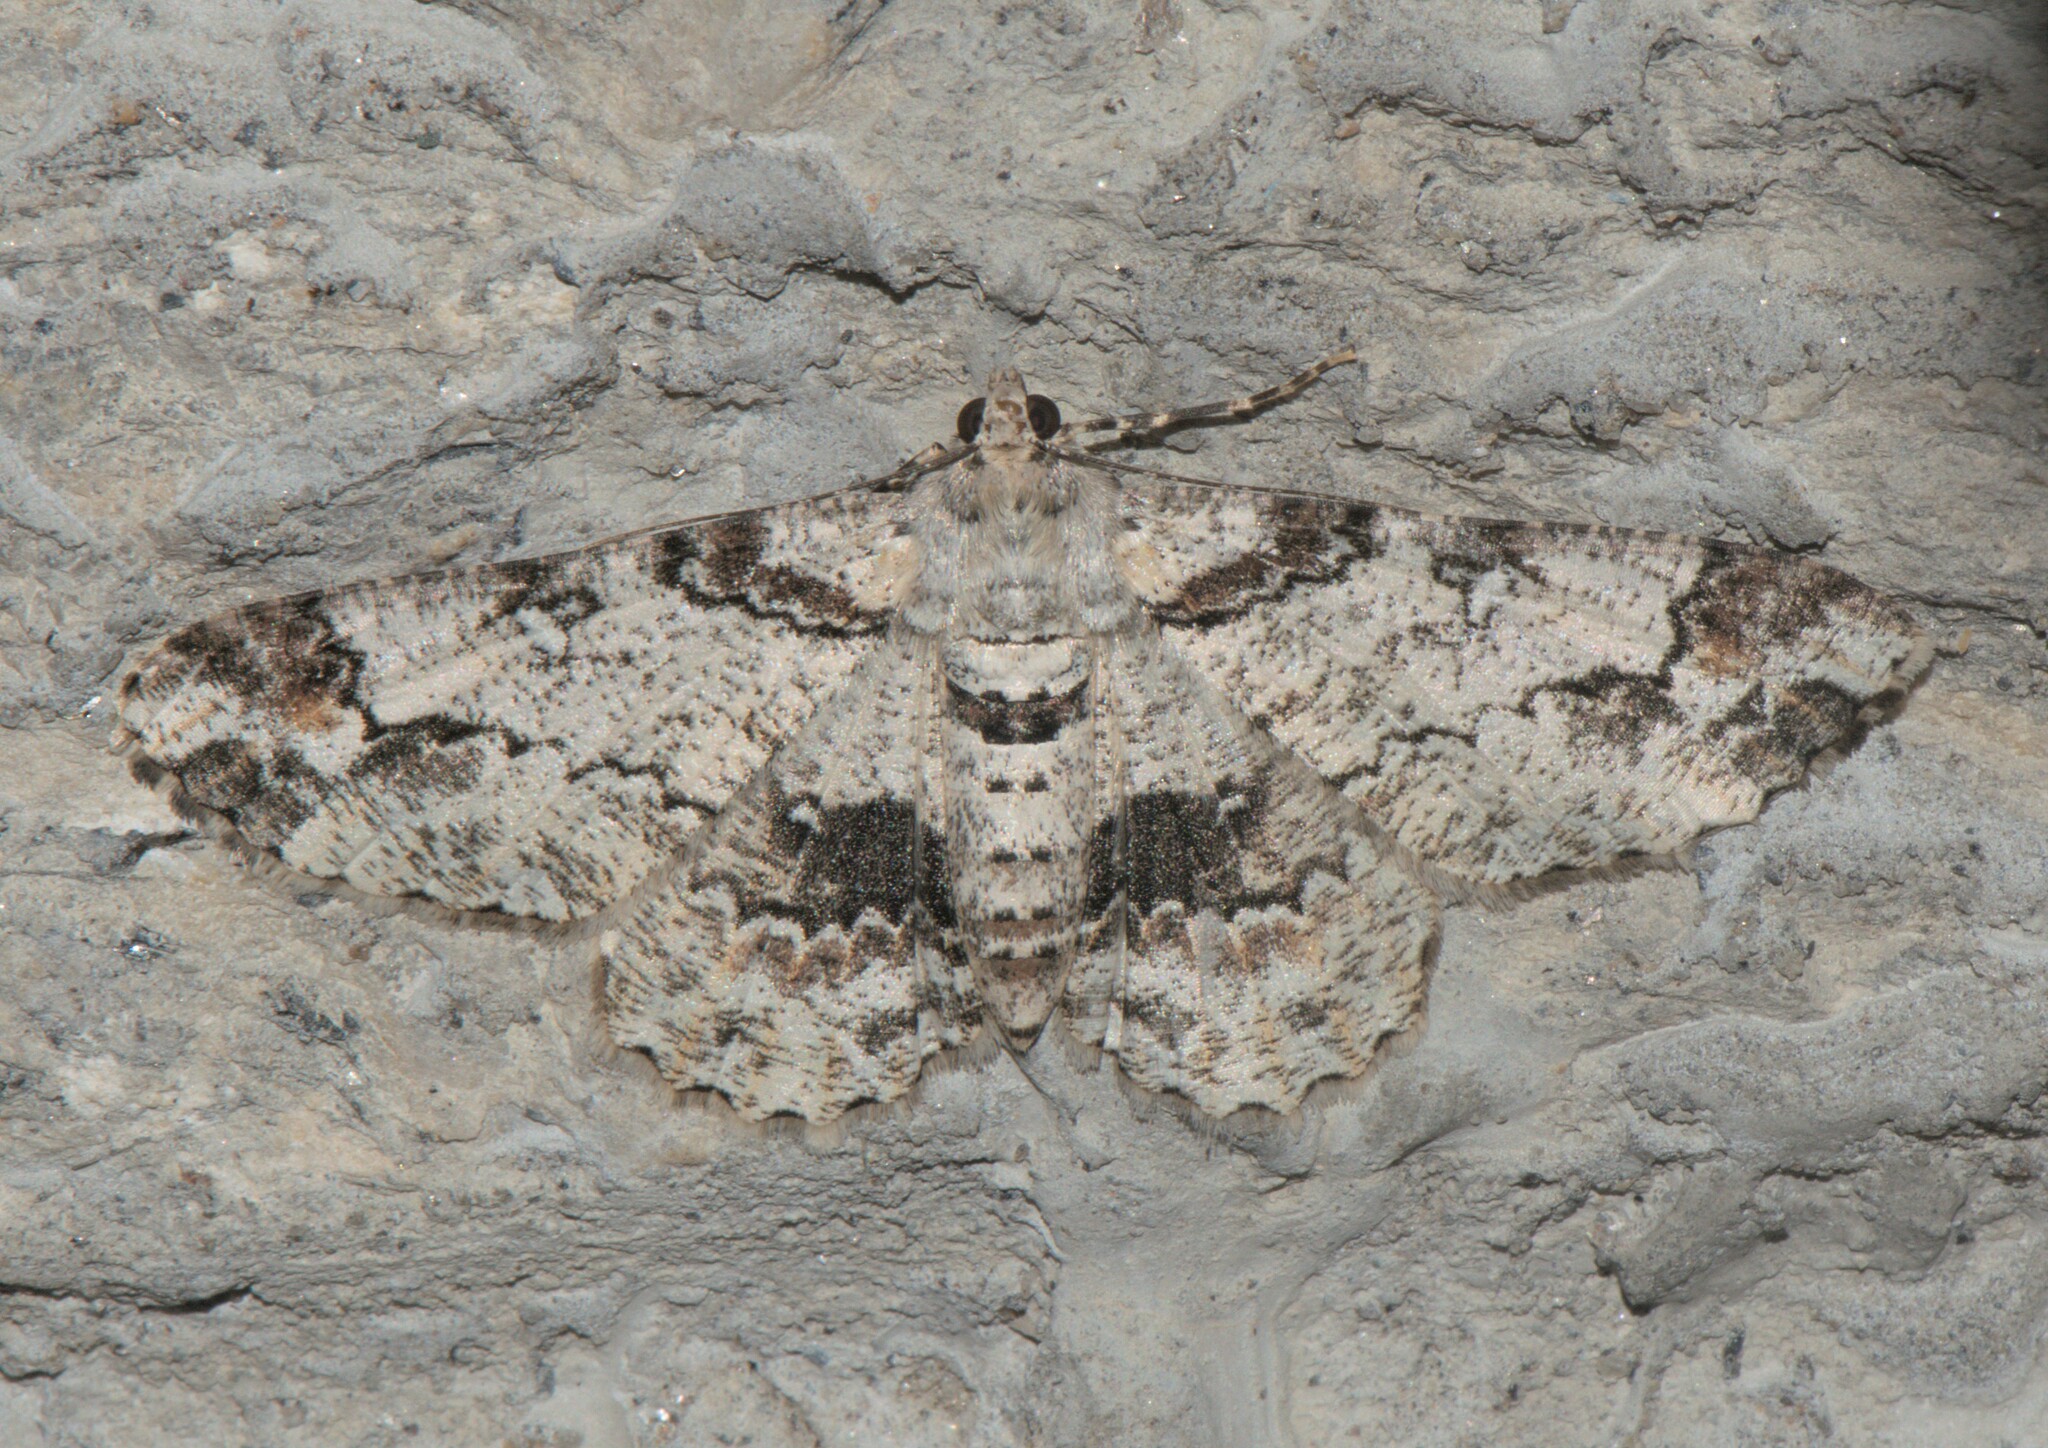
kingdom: Animalia
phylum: Arthropoda
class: Insecta
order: Lepidoptera
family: Geometridae
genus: Cleora
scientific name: Cleora alienaria
